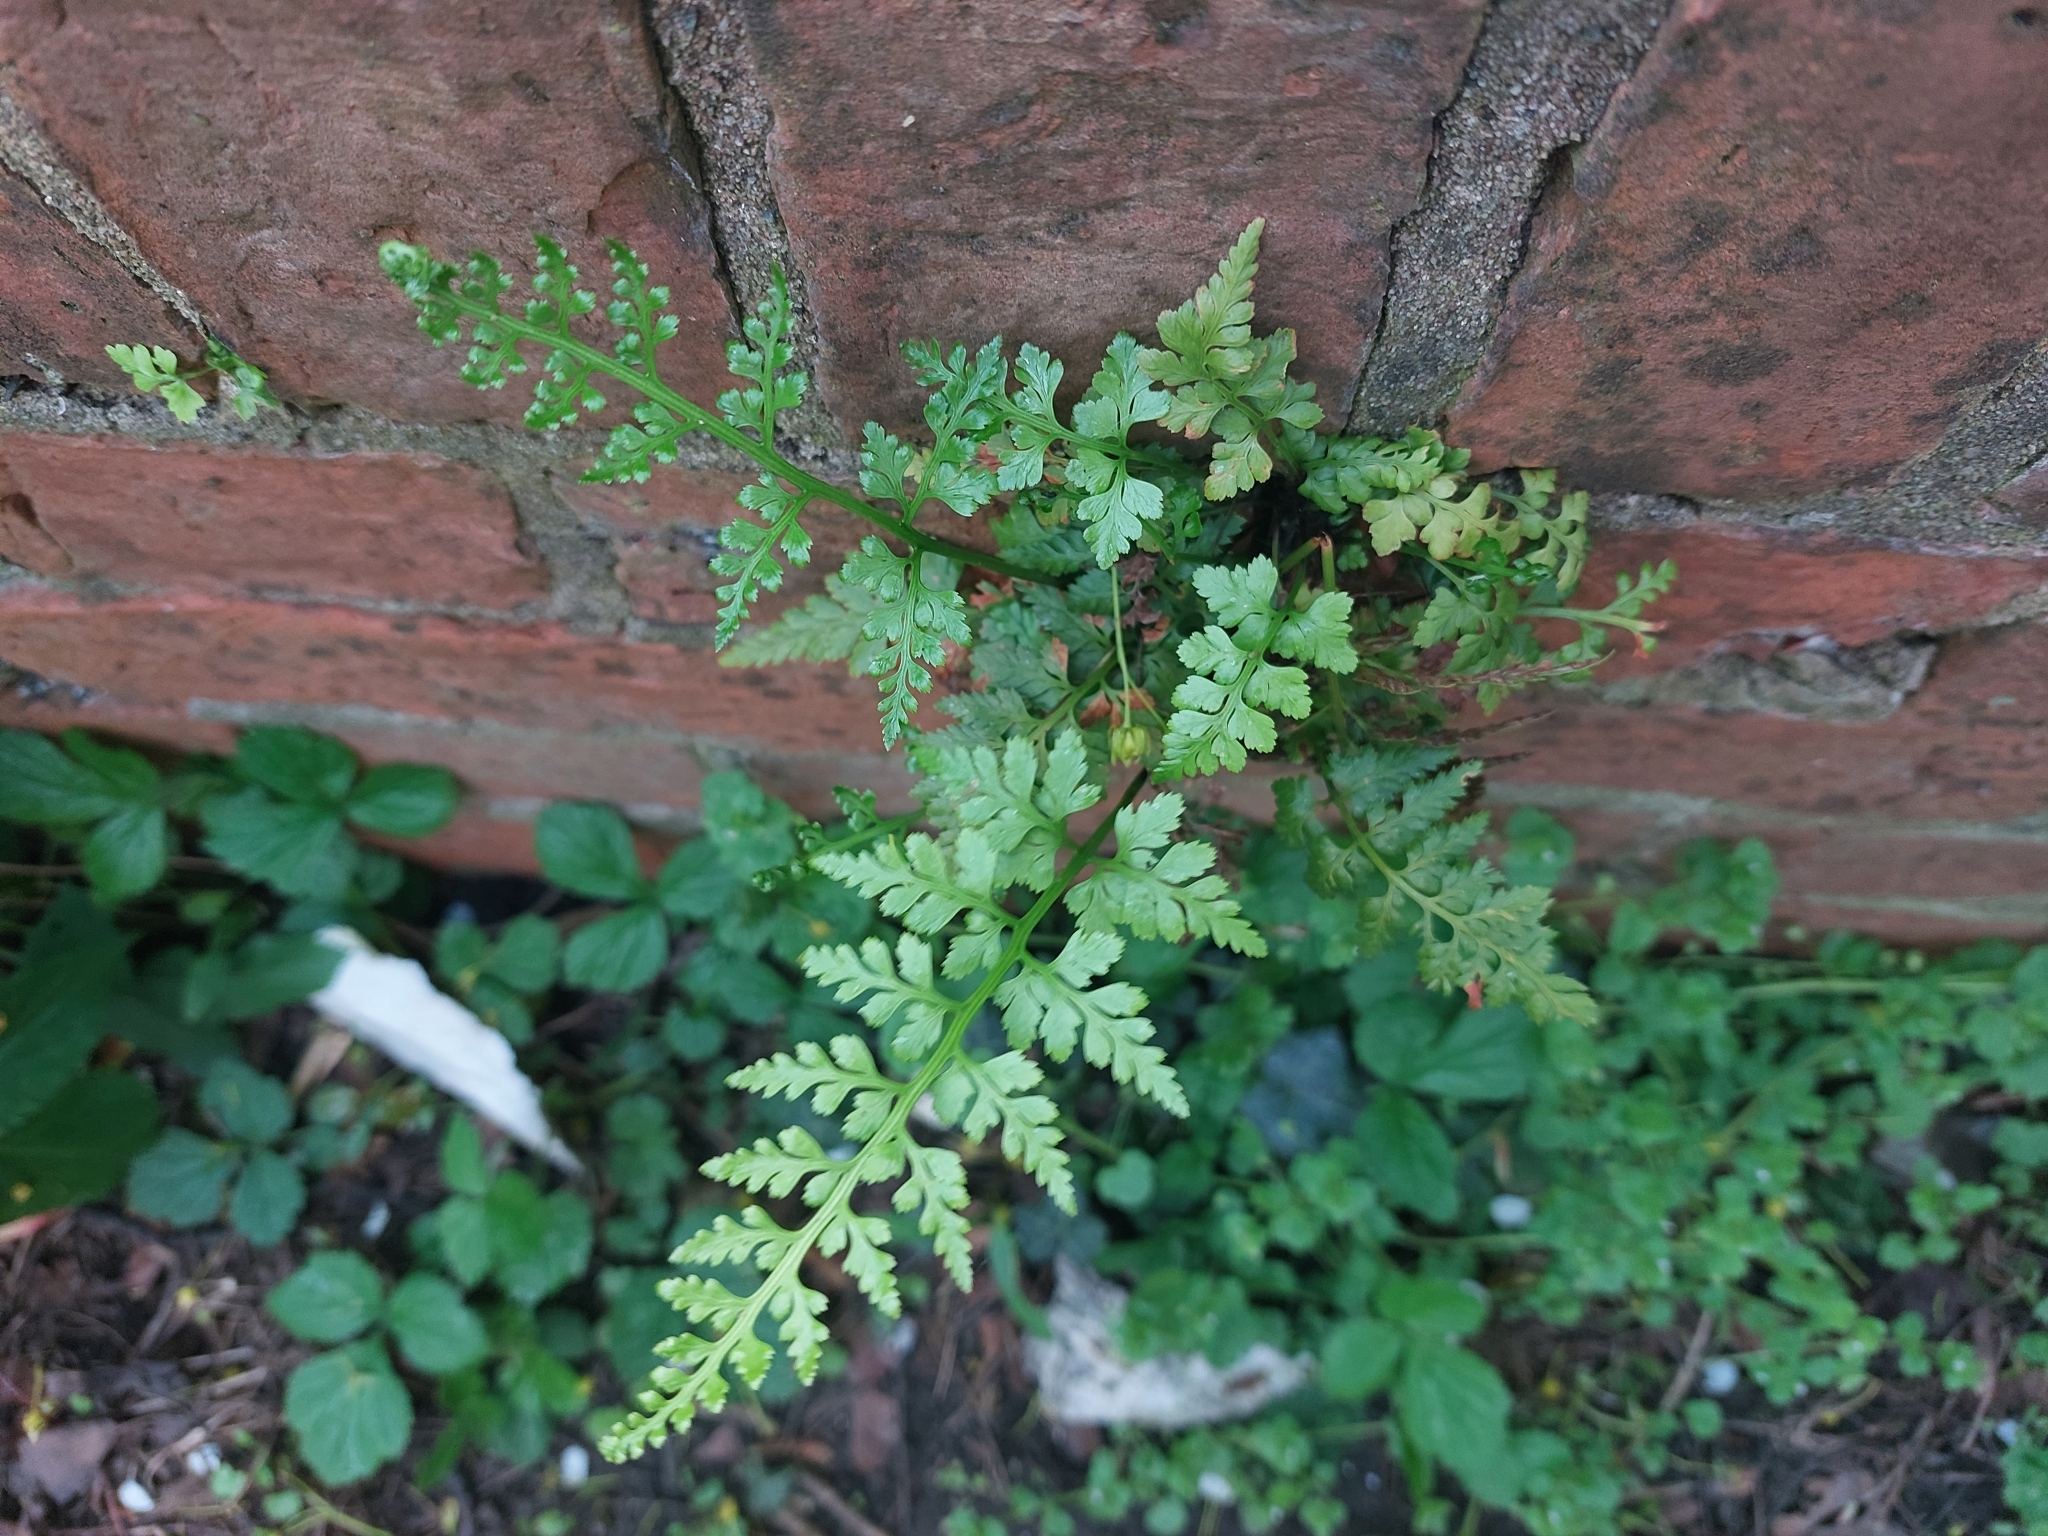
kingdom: Plantae
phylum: Tracheophyta
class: Polypodiopsida
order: Polypodiales
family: Aspleniaceae
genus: Asplenium
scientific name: Asplenium adiantum-nigrum
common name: Black spleenwort
